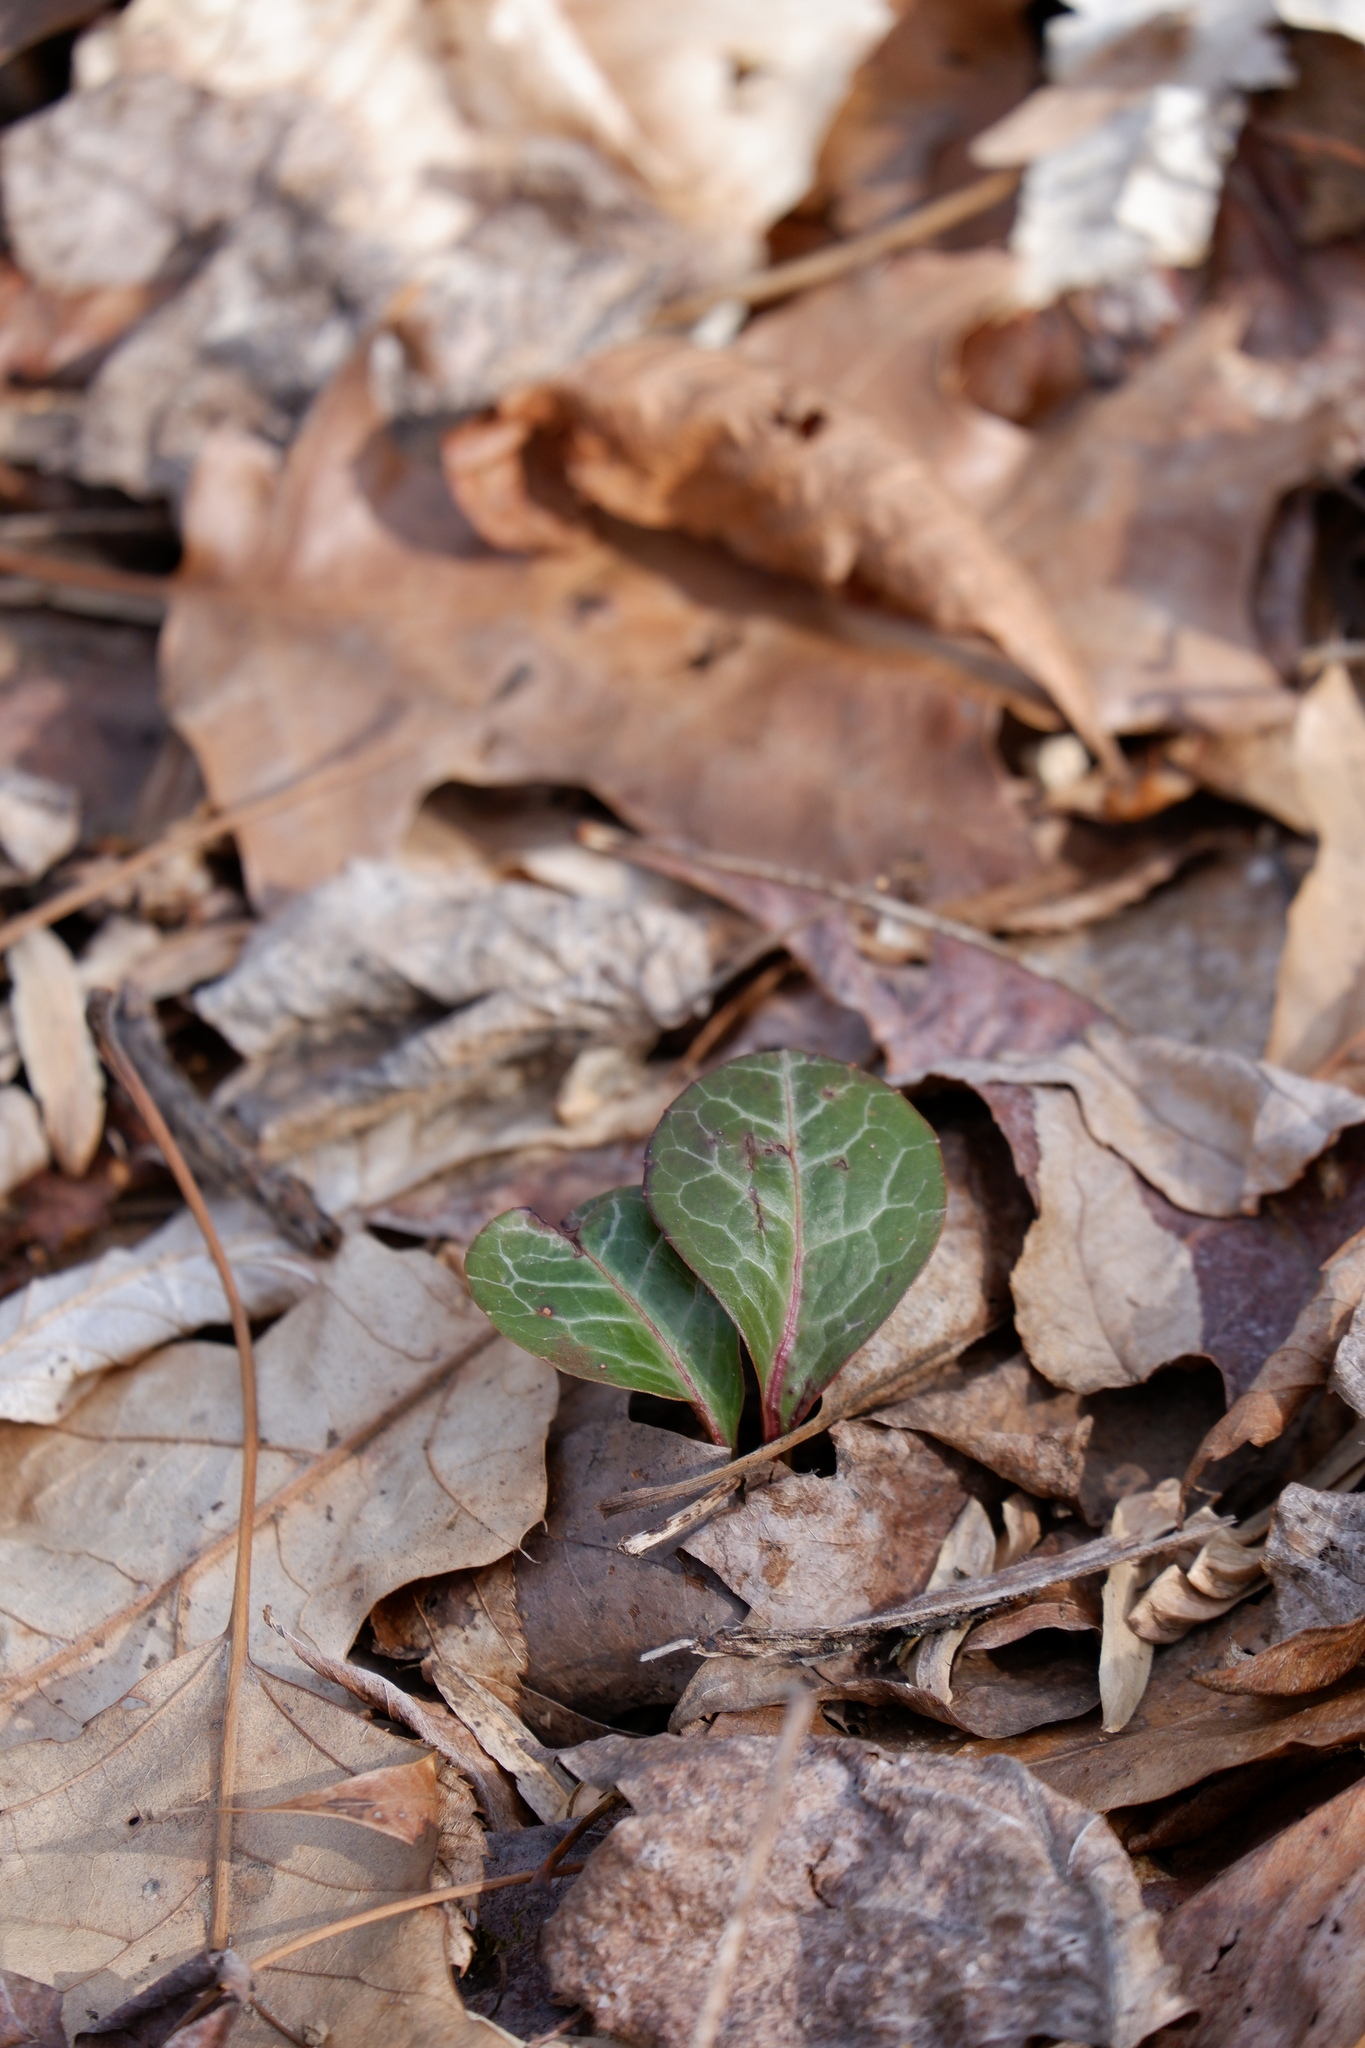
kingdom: Plantae
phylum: Tracheophyta
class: Magnoliopsida
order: Ericales
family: Ericaceae
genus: Pyrola
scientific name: Pyrola americana
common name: American wintergreen
